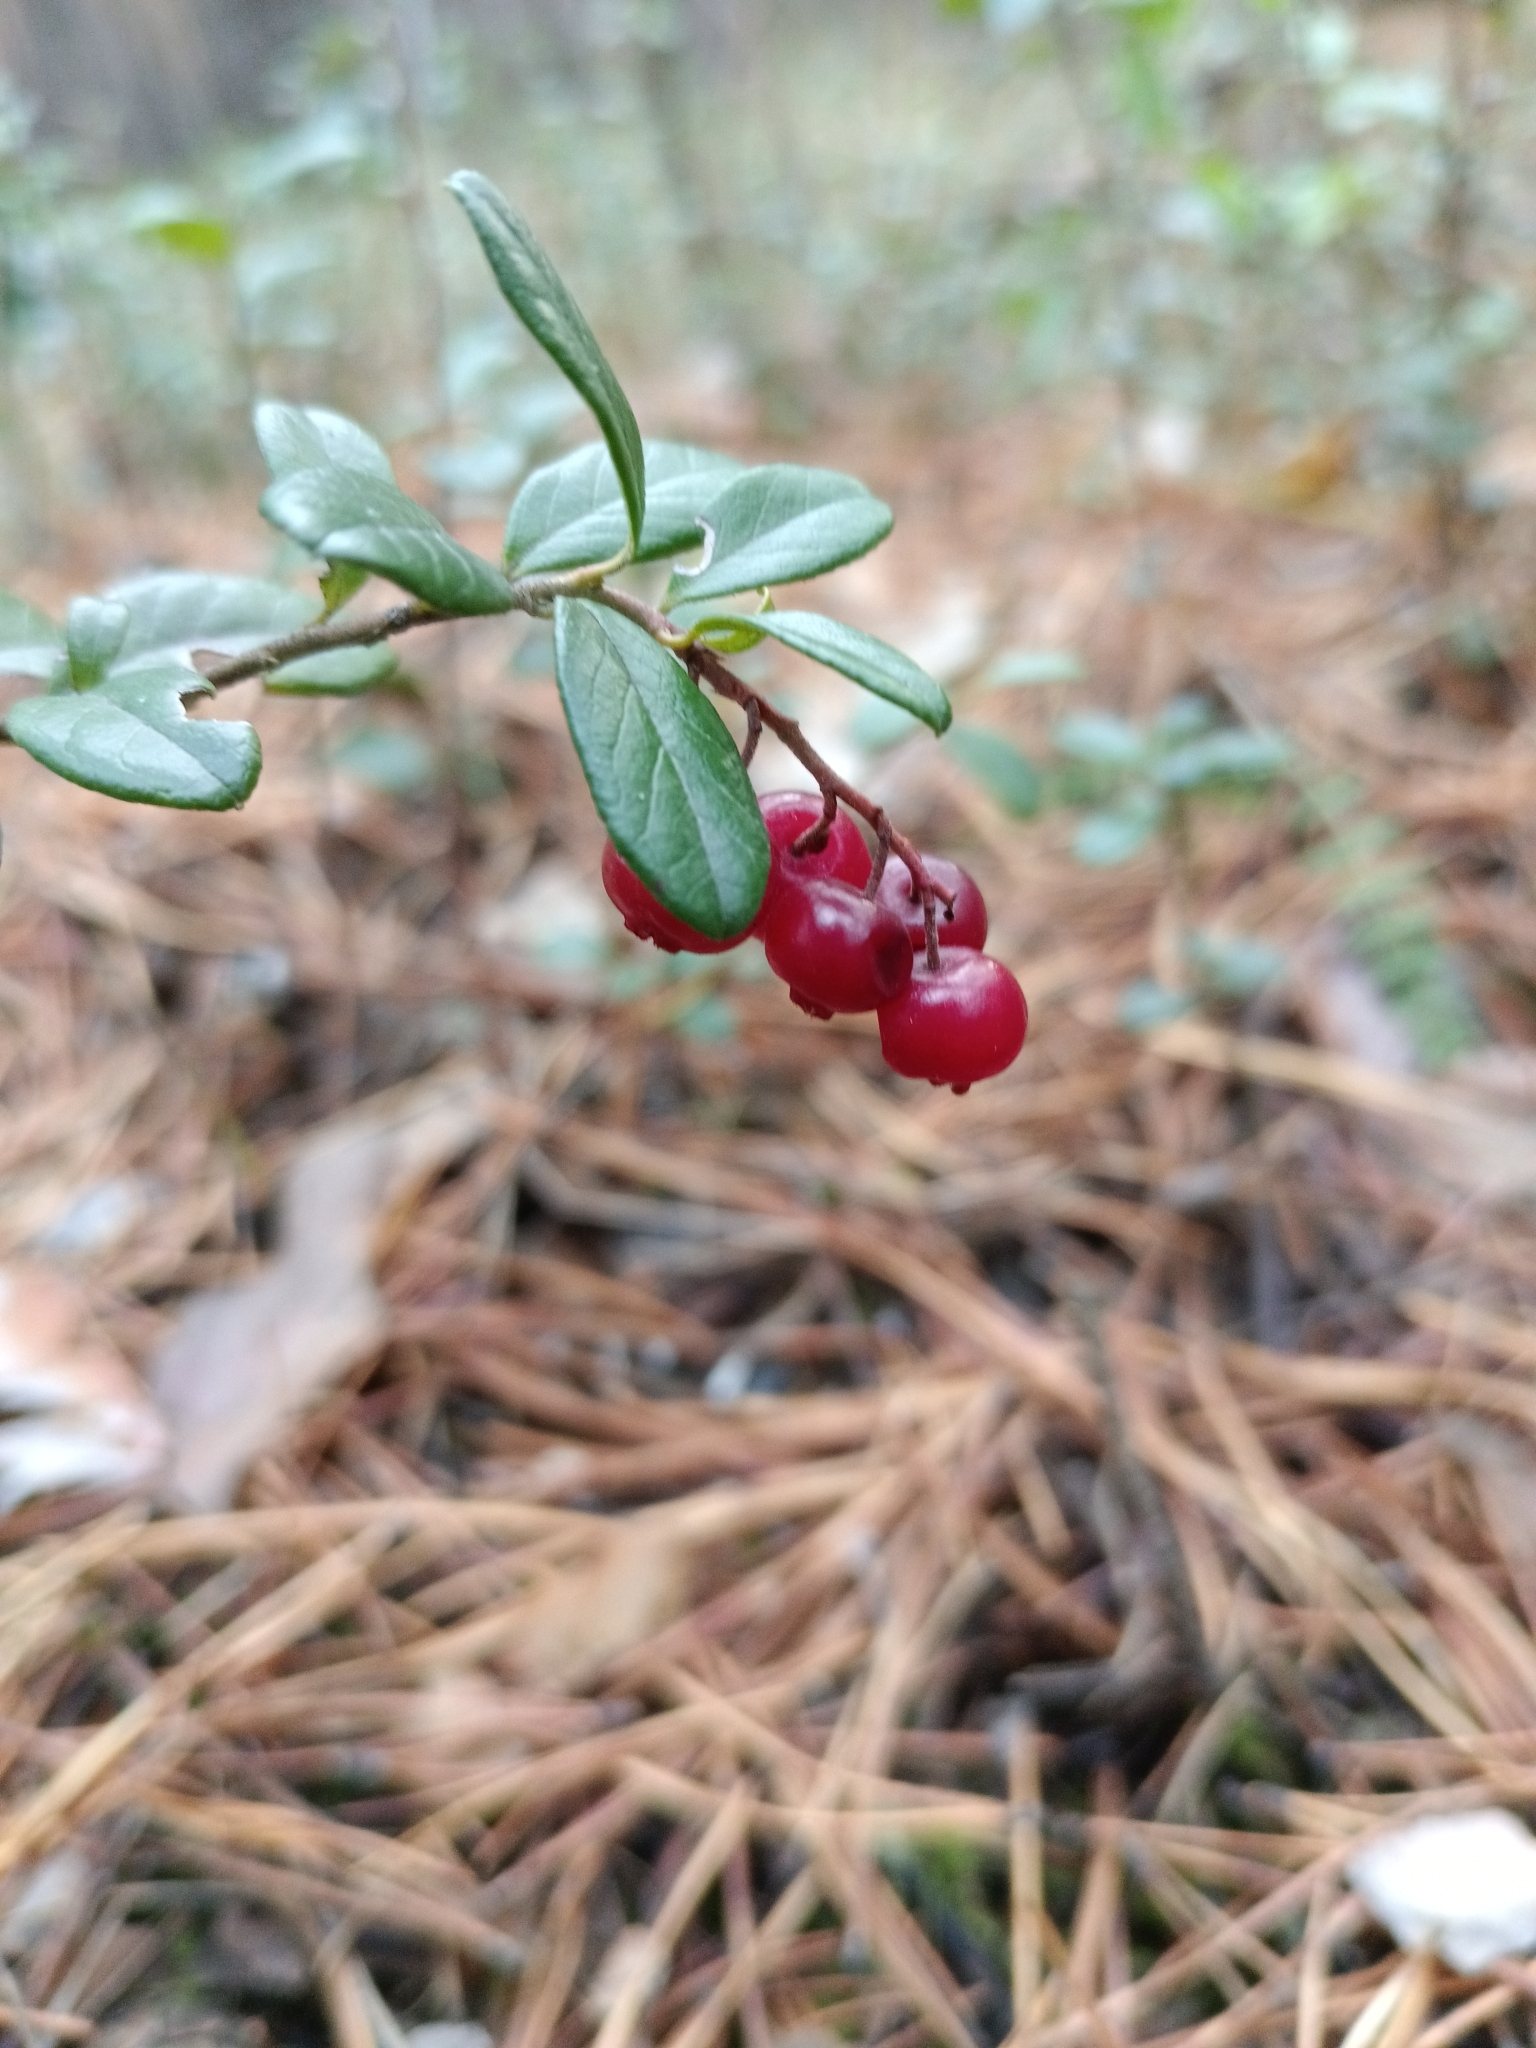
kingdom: Plantae
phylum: Tracheophyta
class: Magnoliopsida
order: Ericales
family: Ericaceae
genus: Vaccinium
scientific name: Vaccinium vitis-idaea
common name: Cowberry
